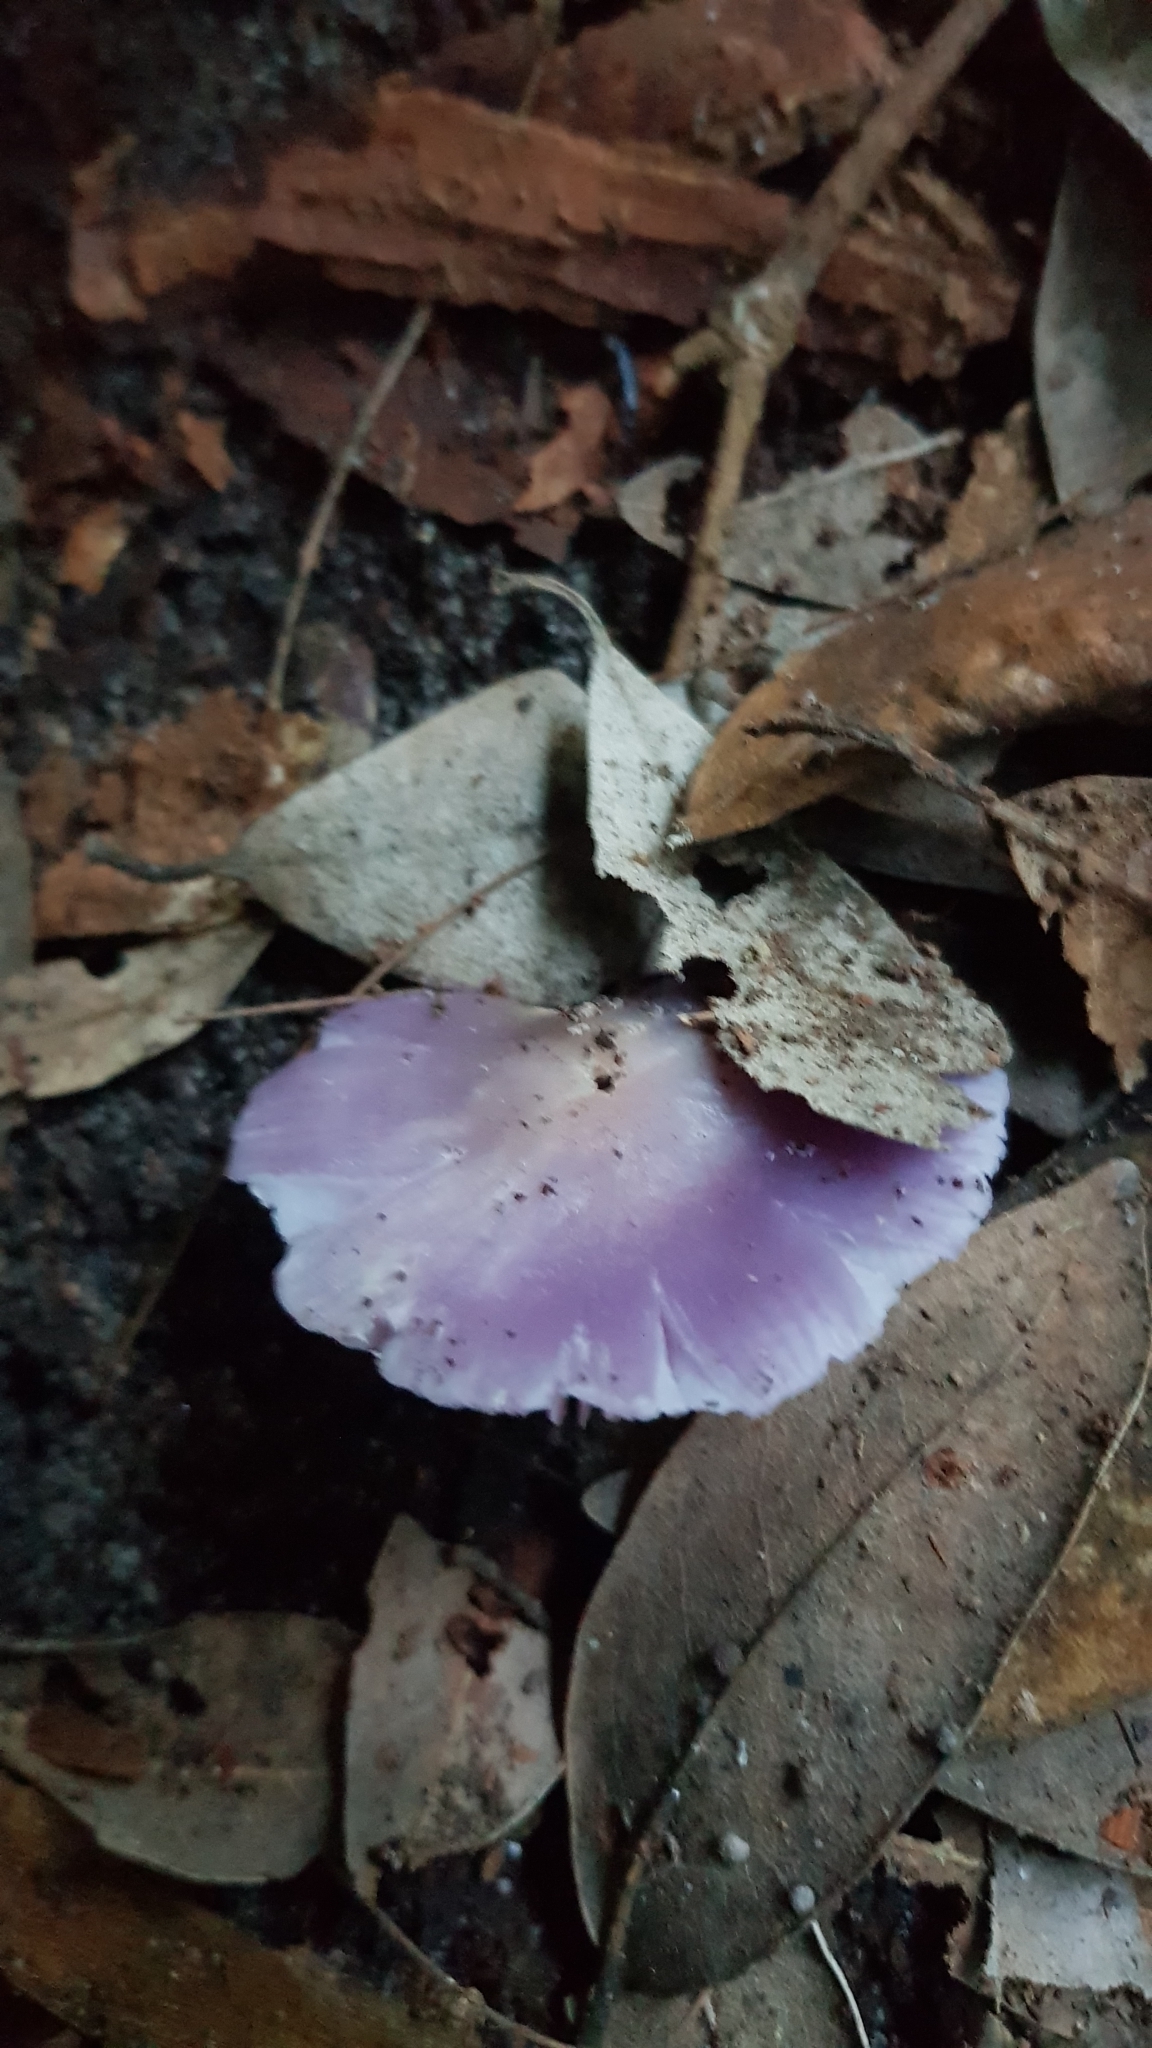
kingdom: Fungi
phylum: Basidiomycota
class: Agaricomycetes
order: Agaricales
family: Hygrophoraceae
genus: Porpolomopsis
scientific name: Porpolomopsis lewelliniae
